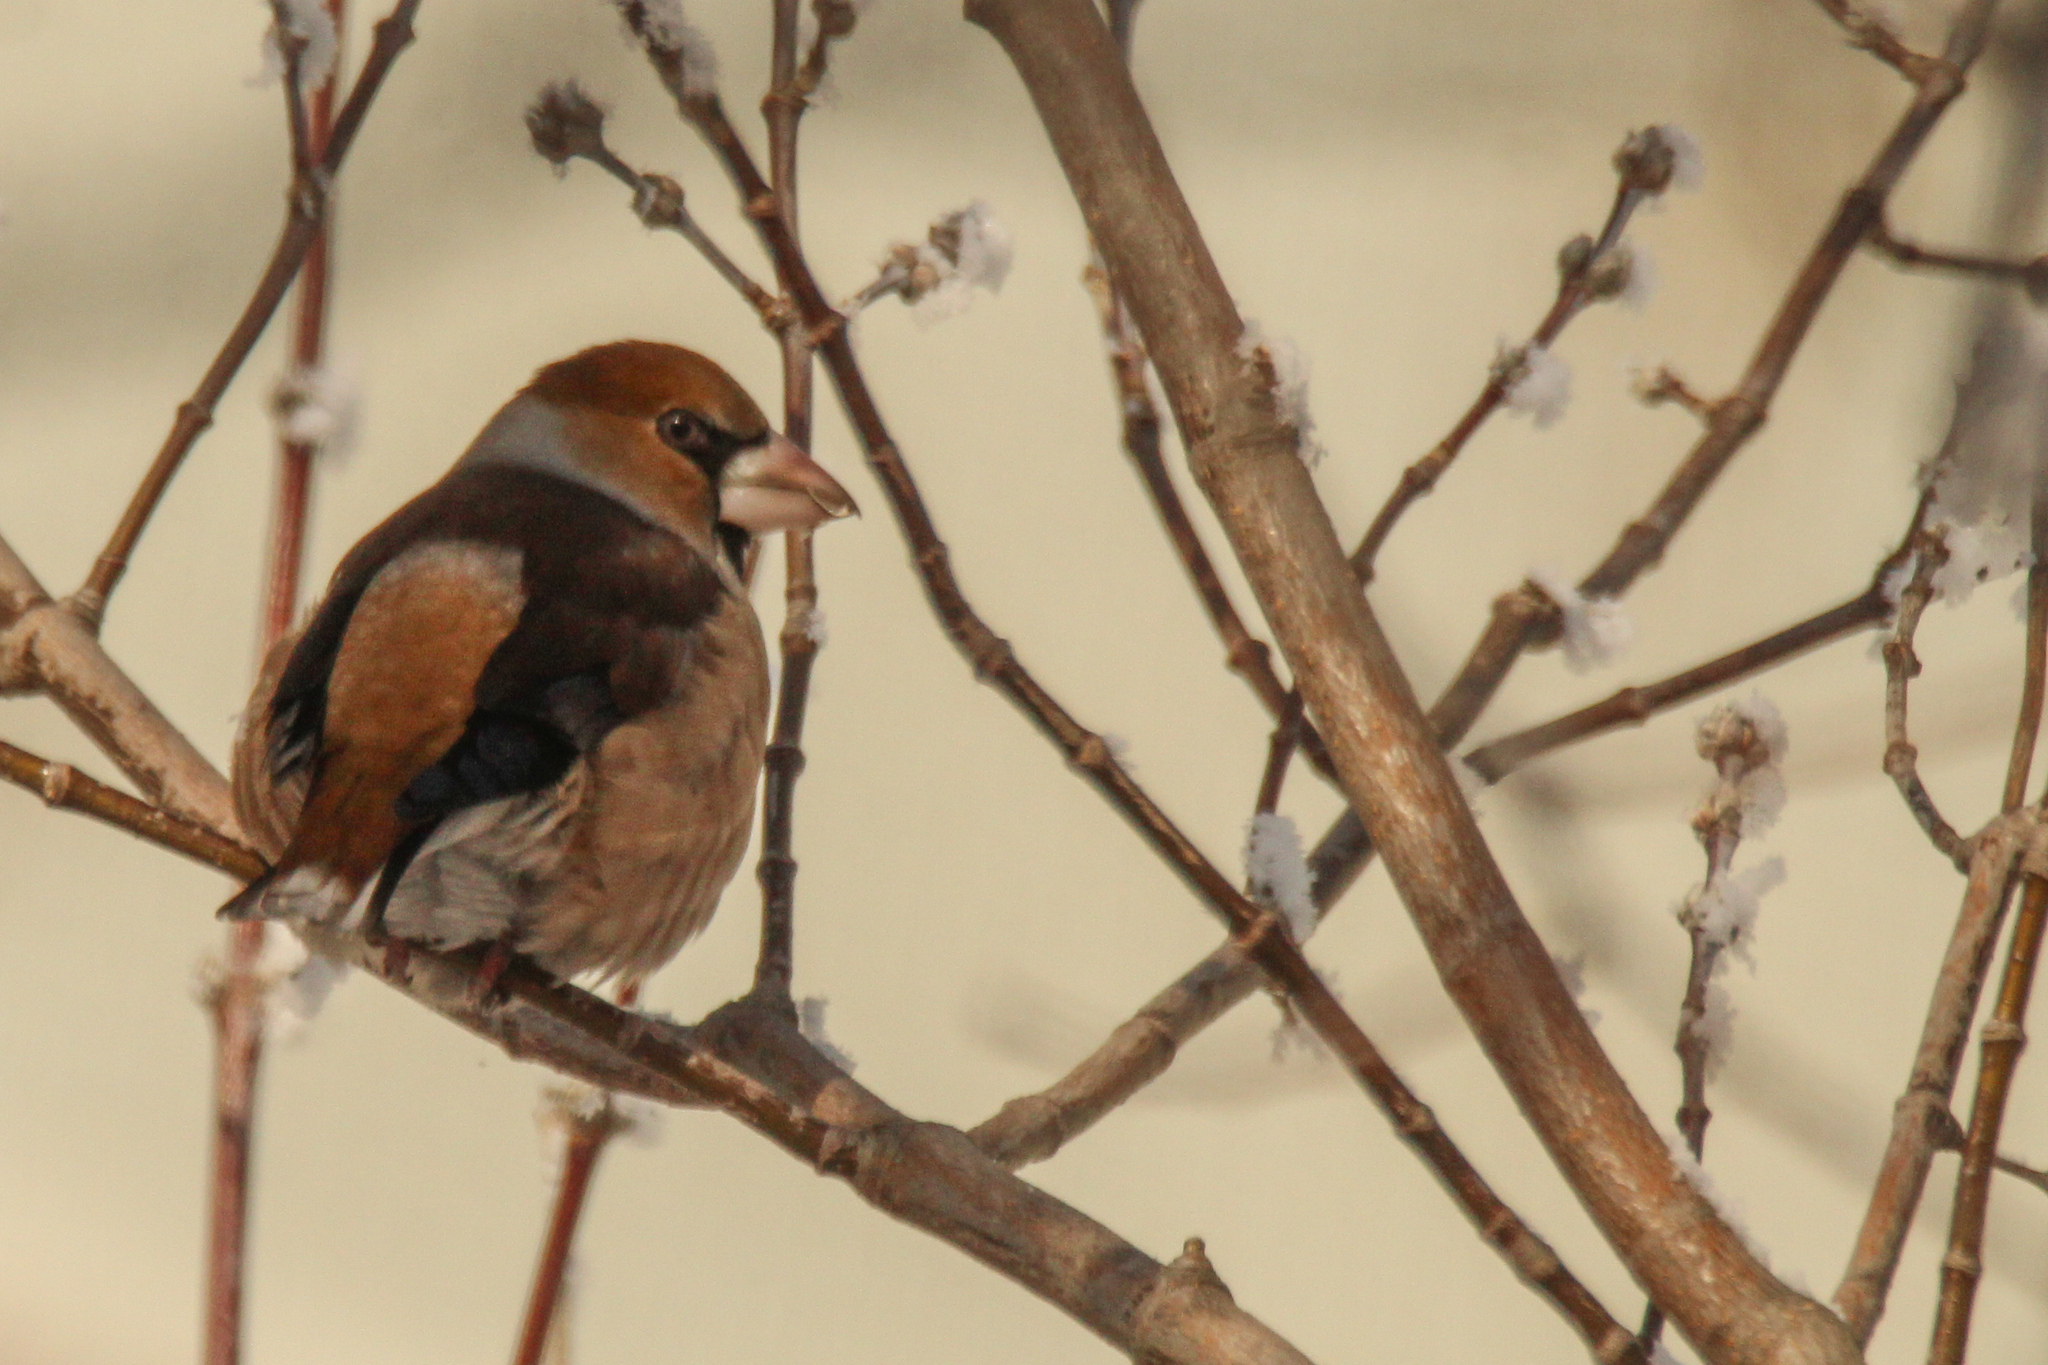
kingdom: Animalia
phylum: Chordata
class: Aves
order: Passeriformes
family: Fringillidae
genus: Coccothraustes
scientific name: Coccothraustes coccothraustes
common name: Hawfinch
